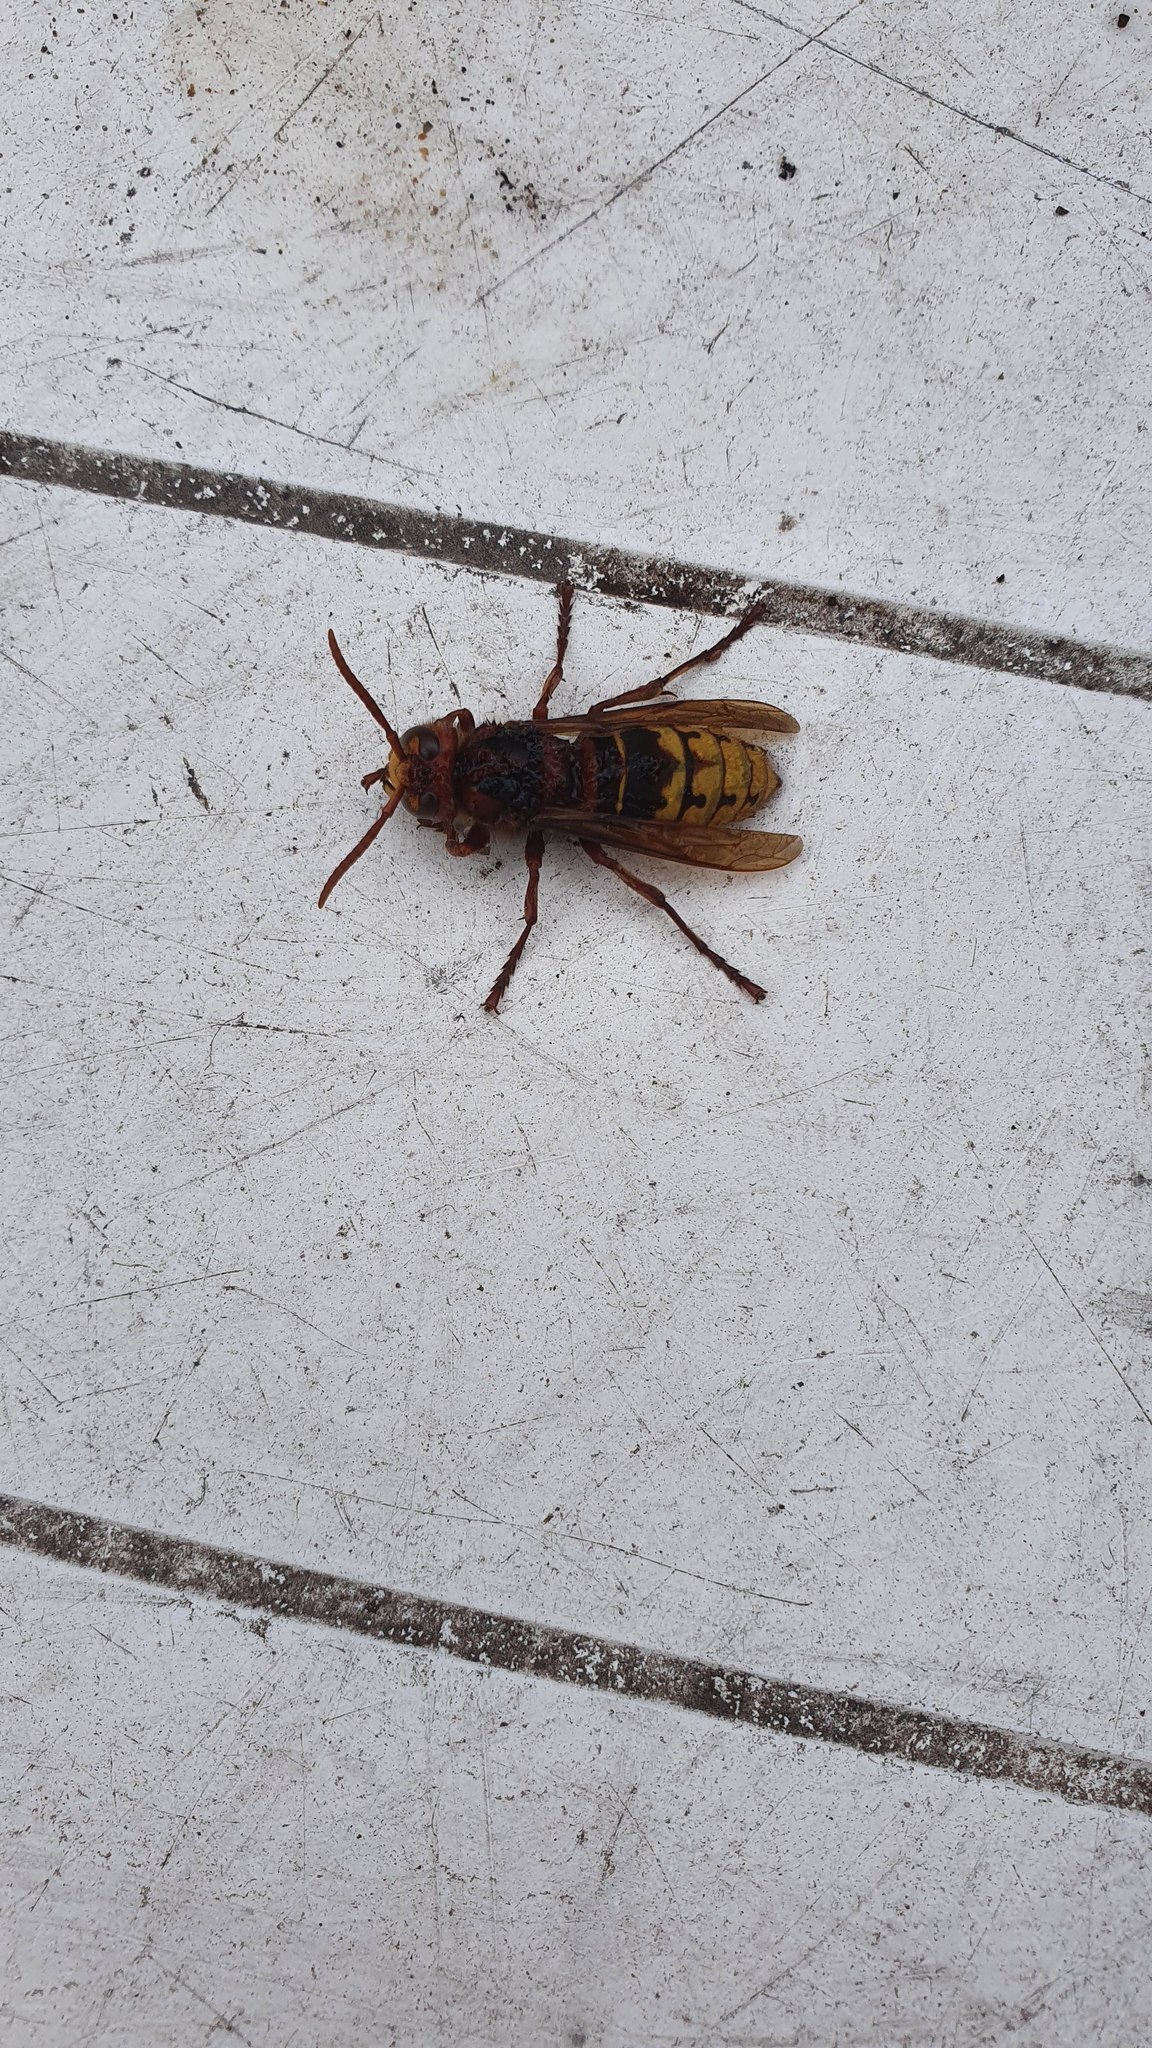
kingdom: Animalia
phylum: Arthropoda
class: Insecta
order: Hymenoptera
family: Vespidae
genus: Vespa
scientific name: Vespa crabro
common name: Hornet
